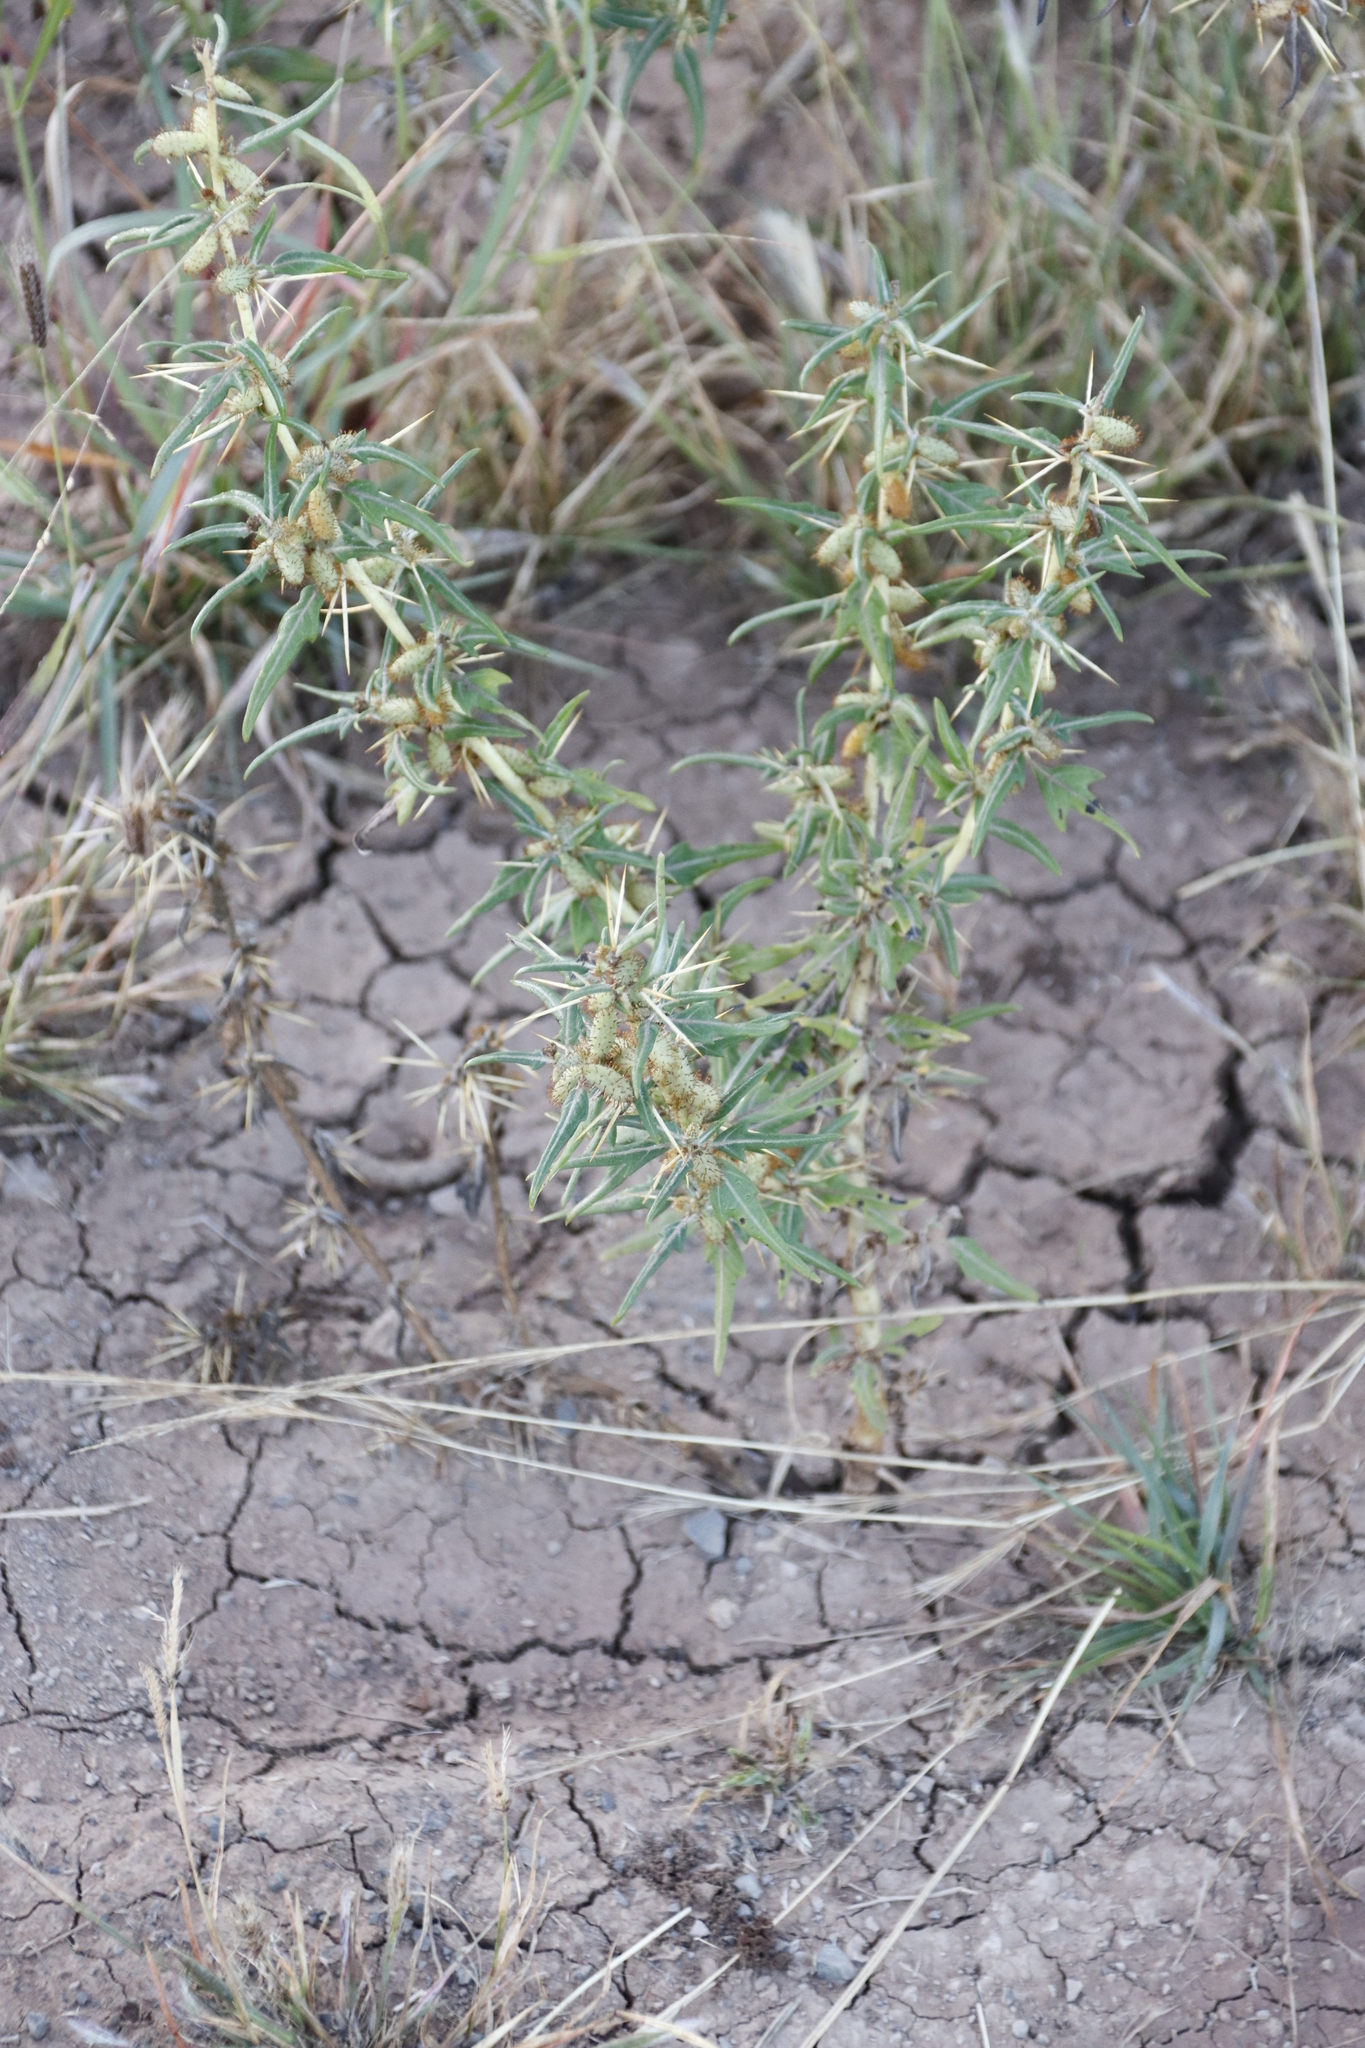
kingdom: Plantae
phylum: Tracheophyta
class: Magnoliopsida
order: Asterales
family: Asteraceae
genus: Xanthium
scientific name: Xanthium spinosum
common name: Spiny cocklebur
